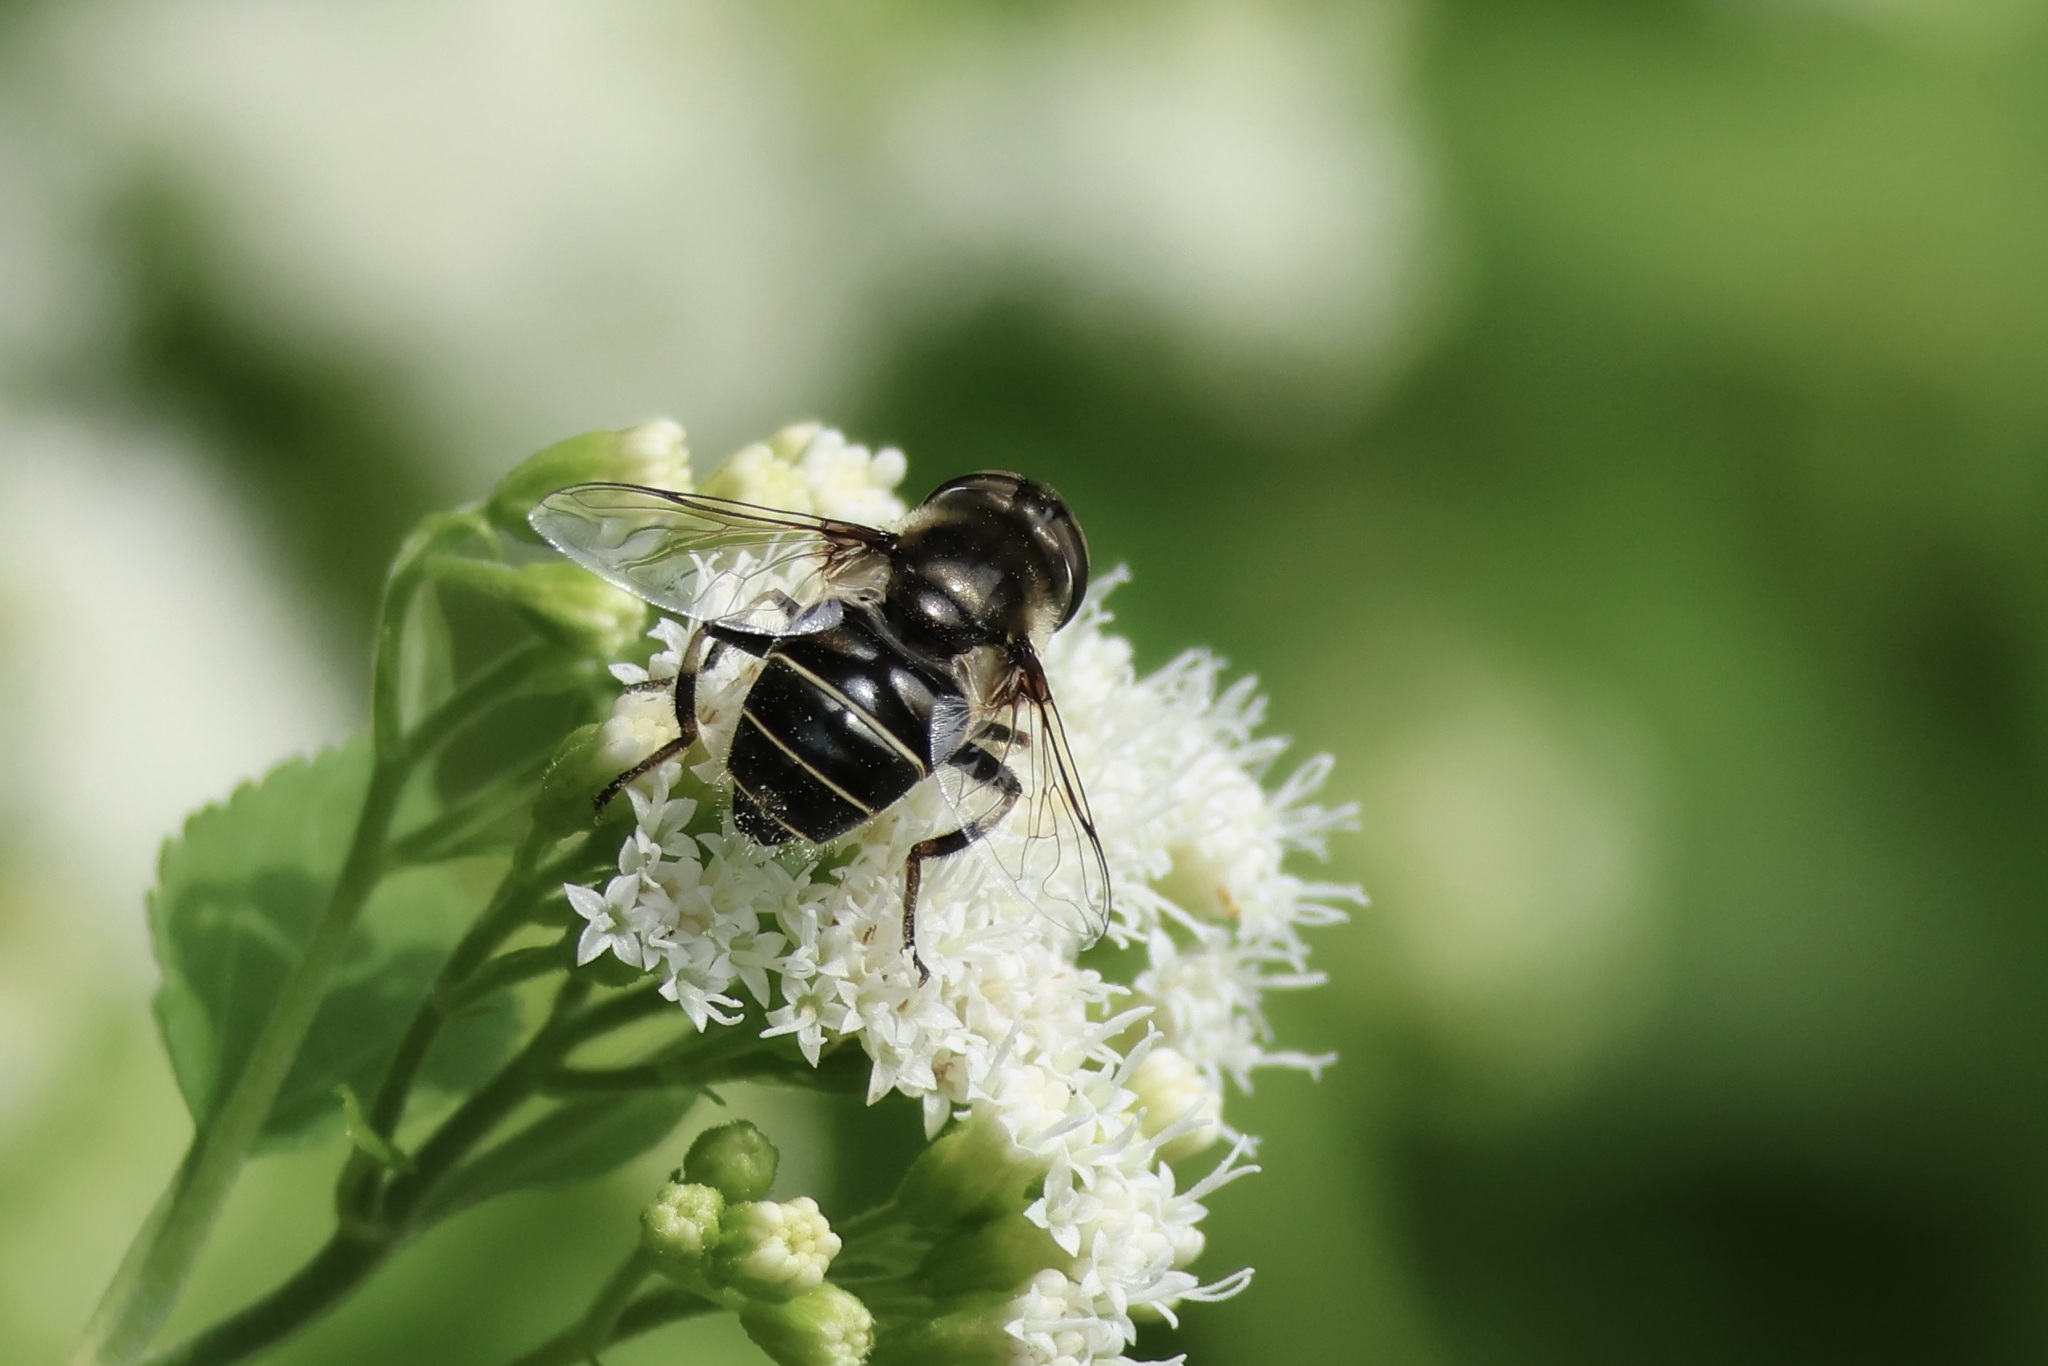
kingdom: Animalia
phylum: Arthropoda
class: Insecta
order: Diptera
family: Syrphidae
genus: Eristalis
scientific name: Eristalis dimidiata
